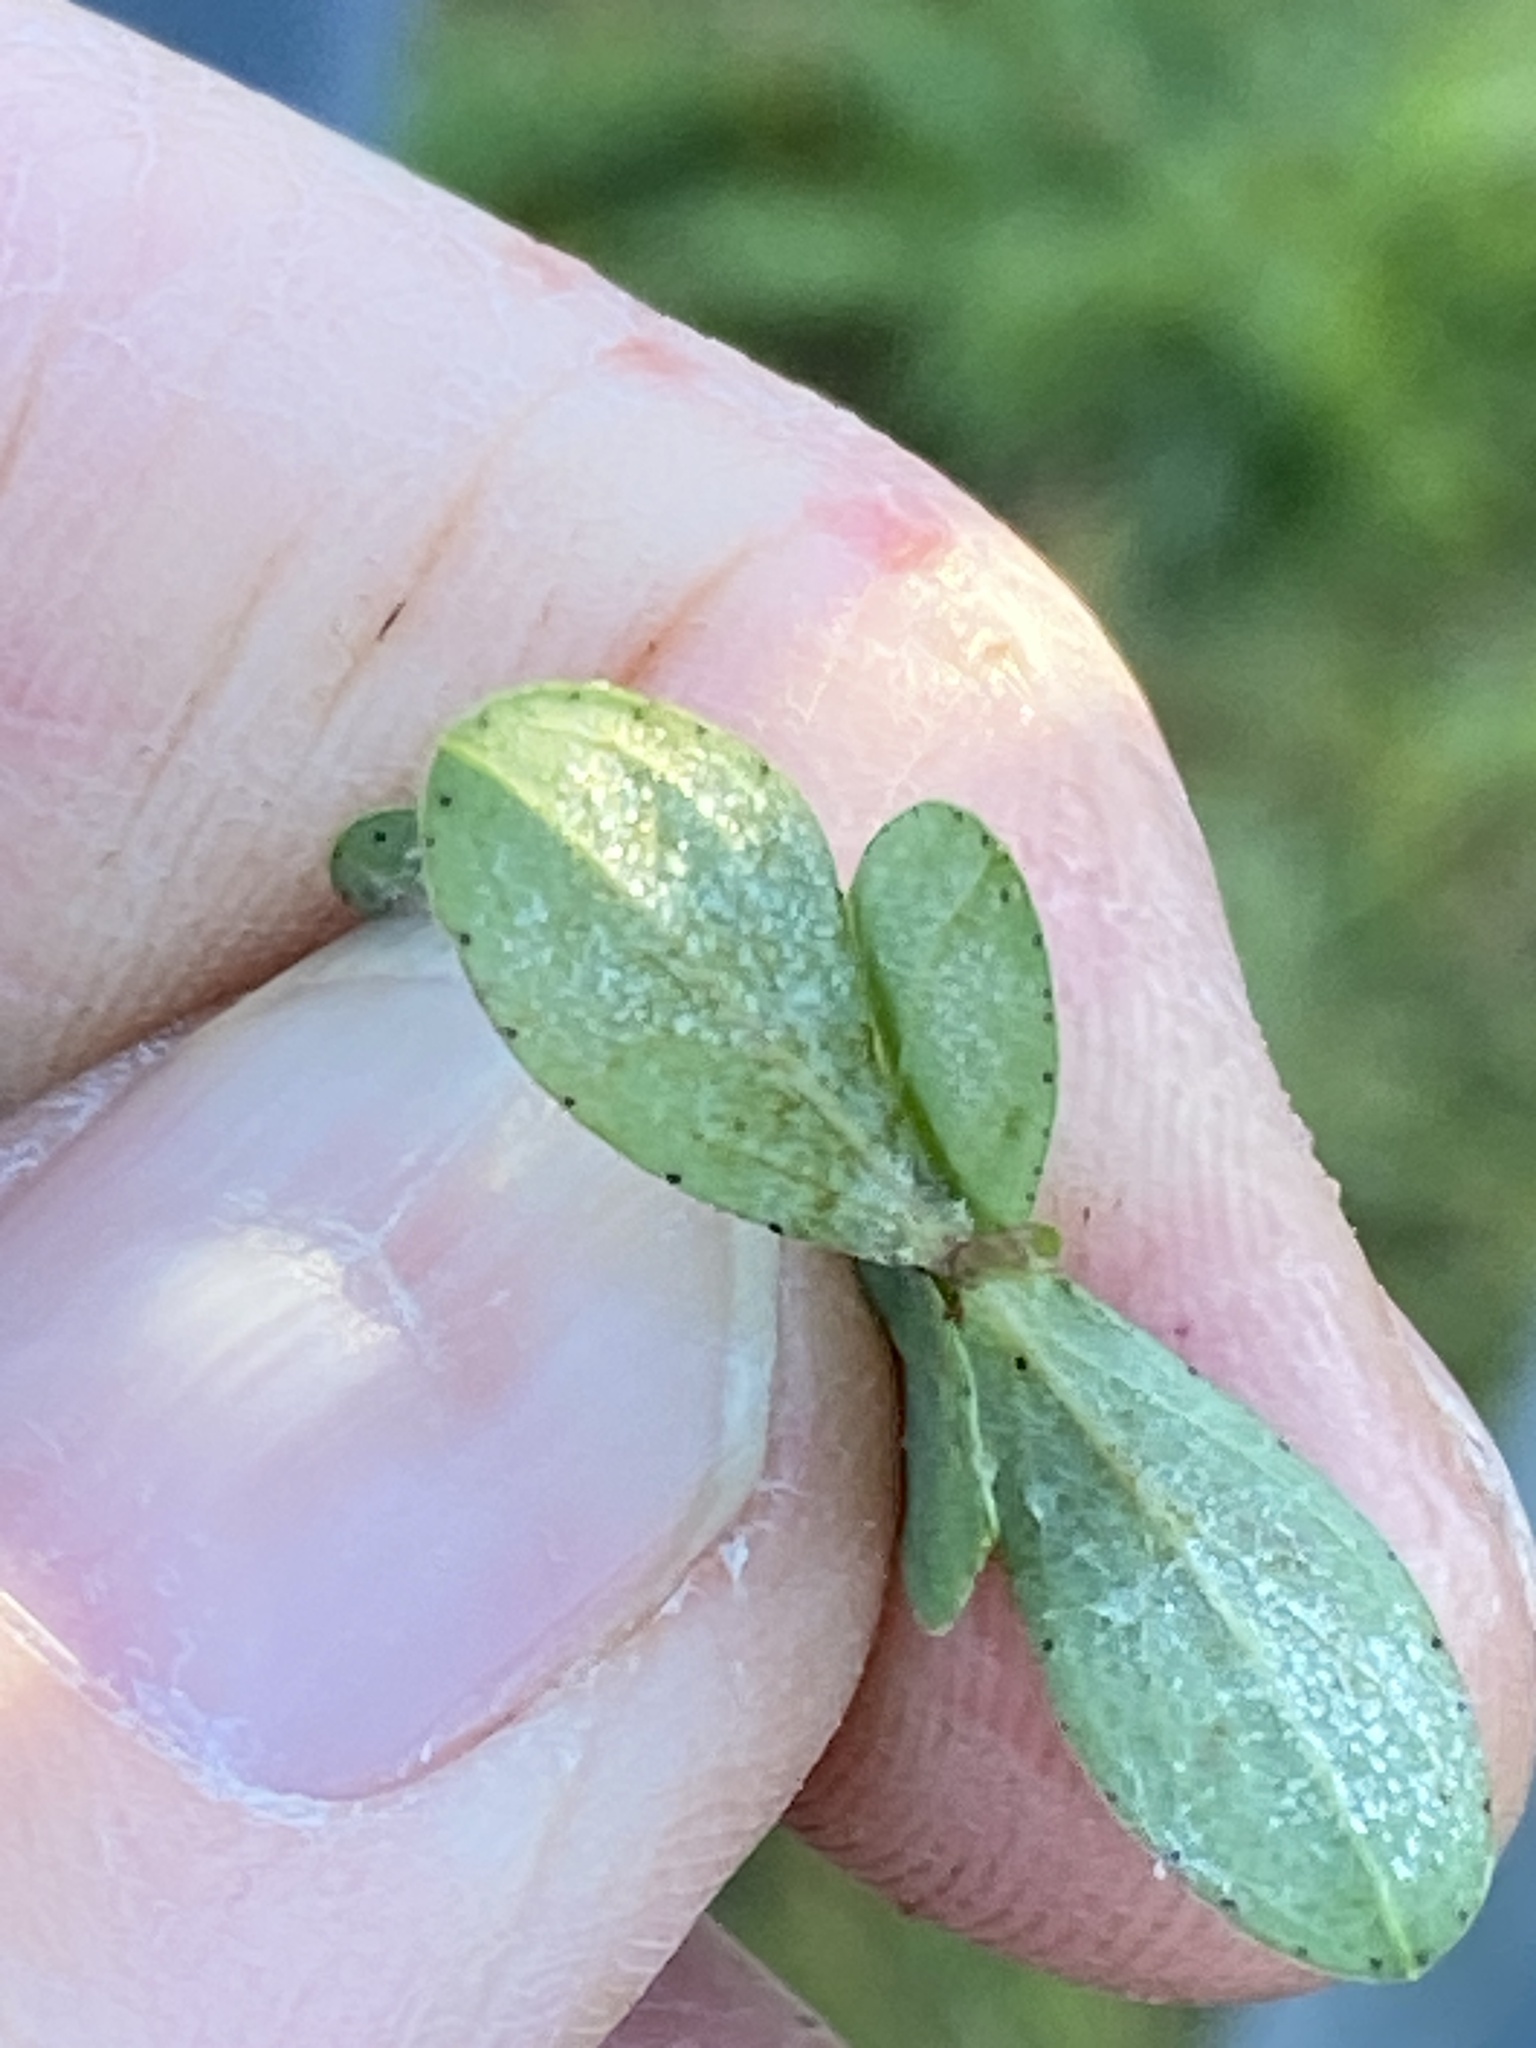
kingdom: Plantae
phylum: Tracheophyta
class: Magnoliopsida
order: Malpighiales
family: Hypericaceae
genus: Hypericum
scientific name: Hypericum perforatum
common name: Common st. johnswort
